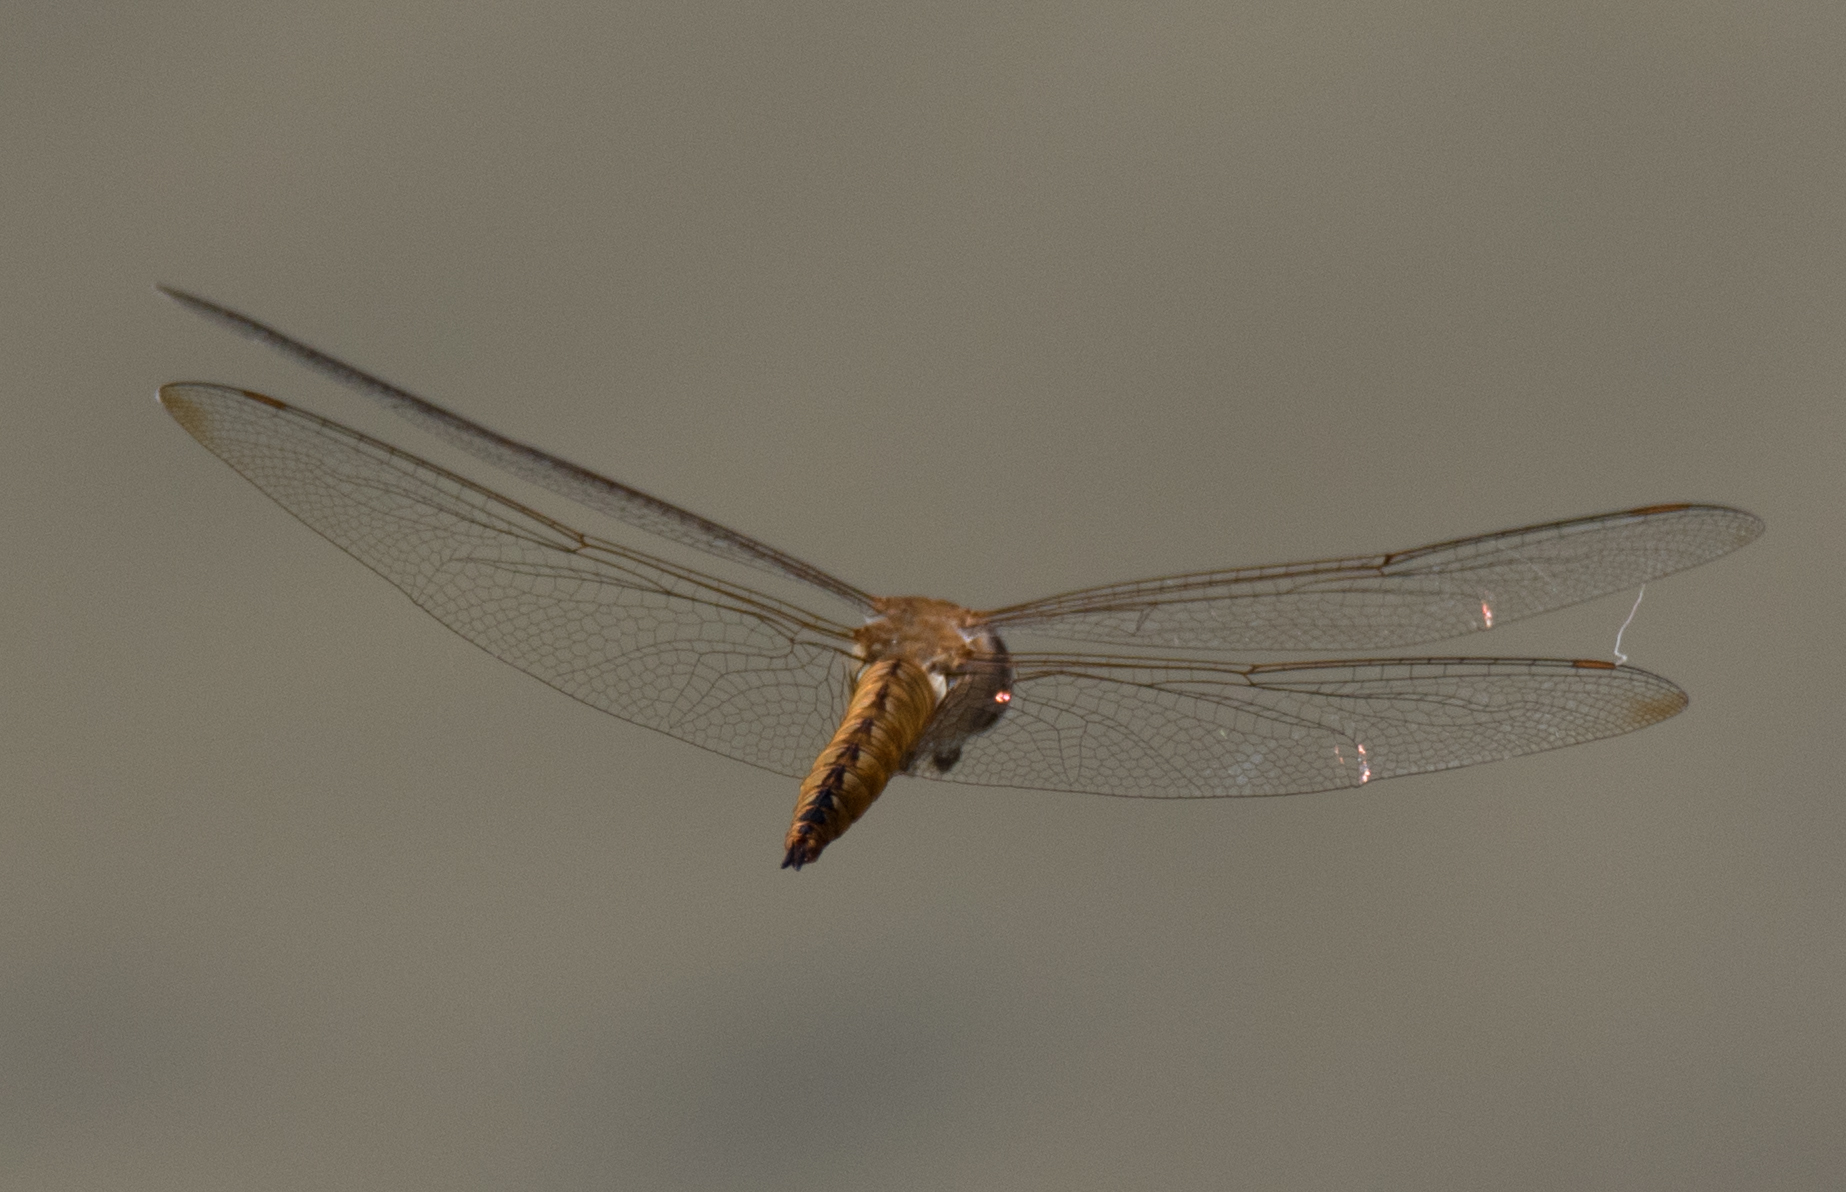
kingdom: Animalia
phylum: Arthropoda
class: Insecta
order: Odonata
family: Libellulidae
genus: Pantala
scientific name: Pantala flavescens
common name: Wandering glider
